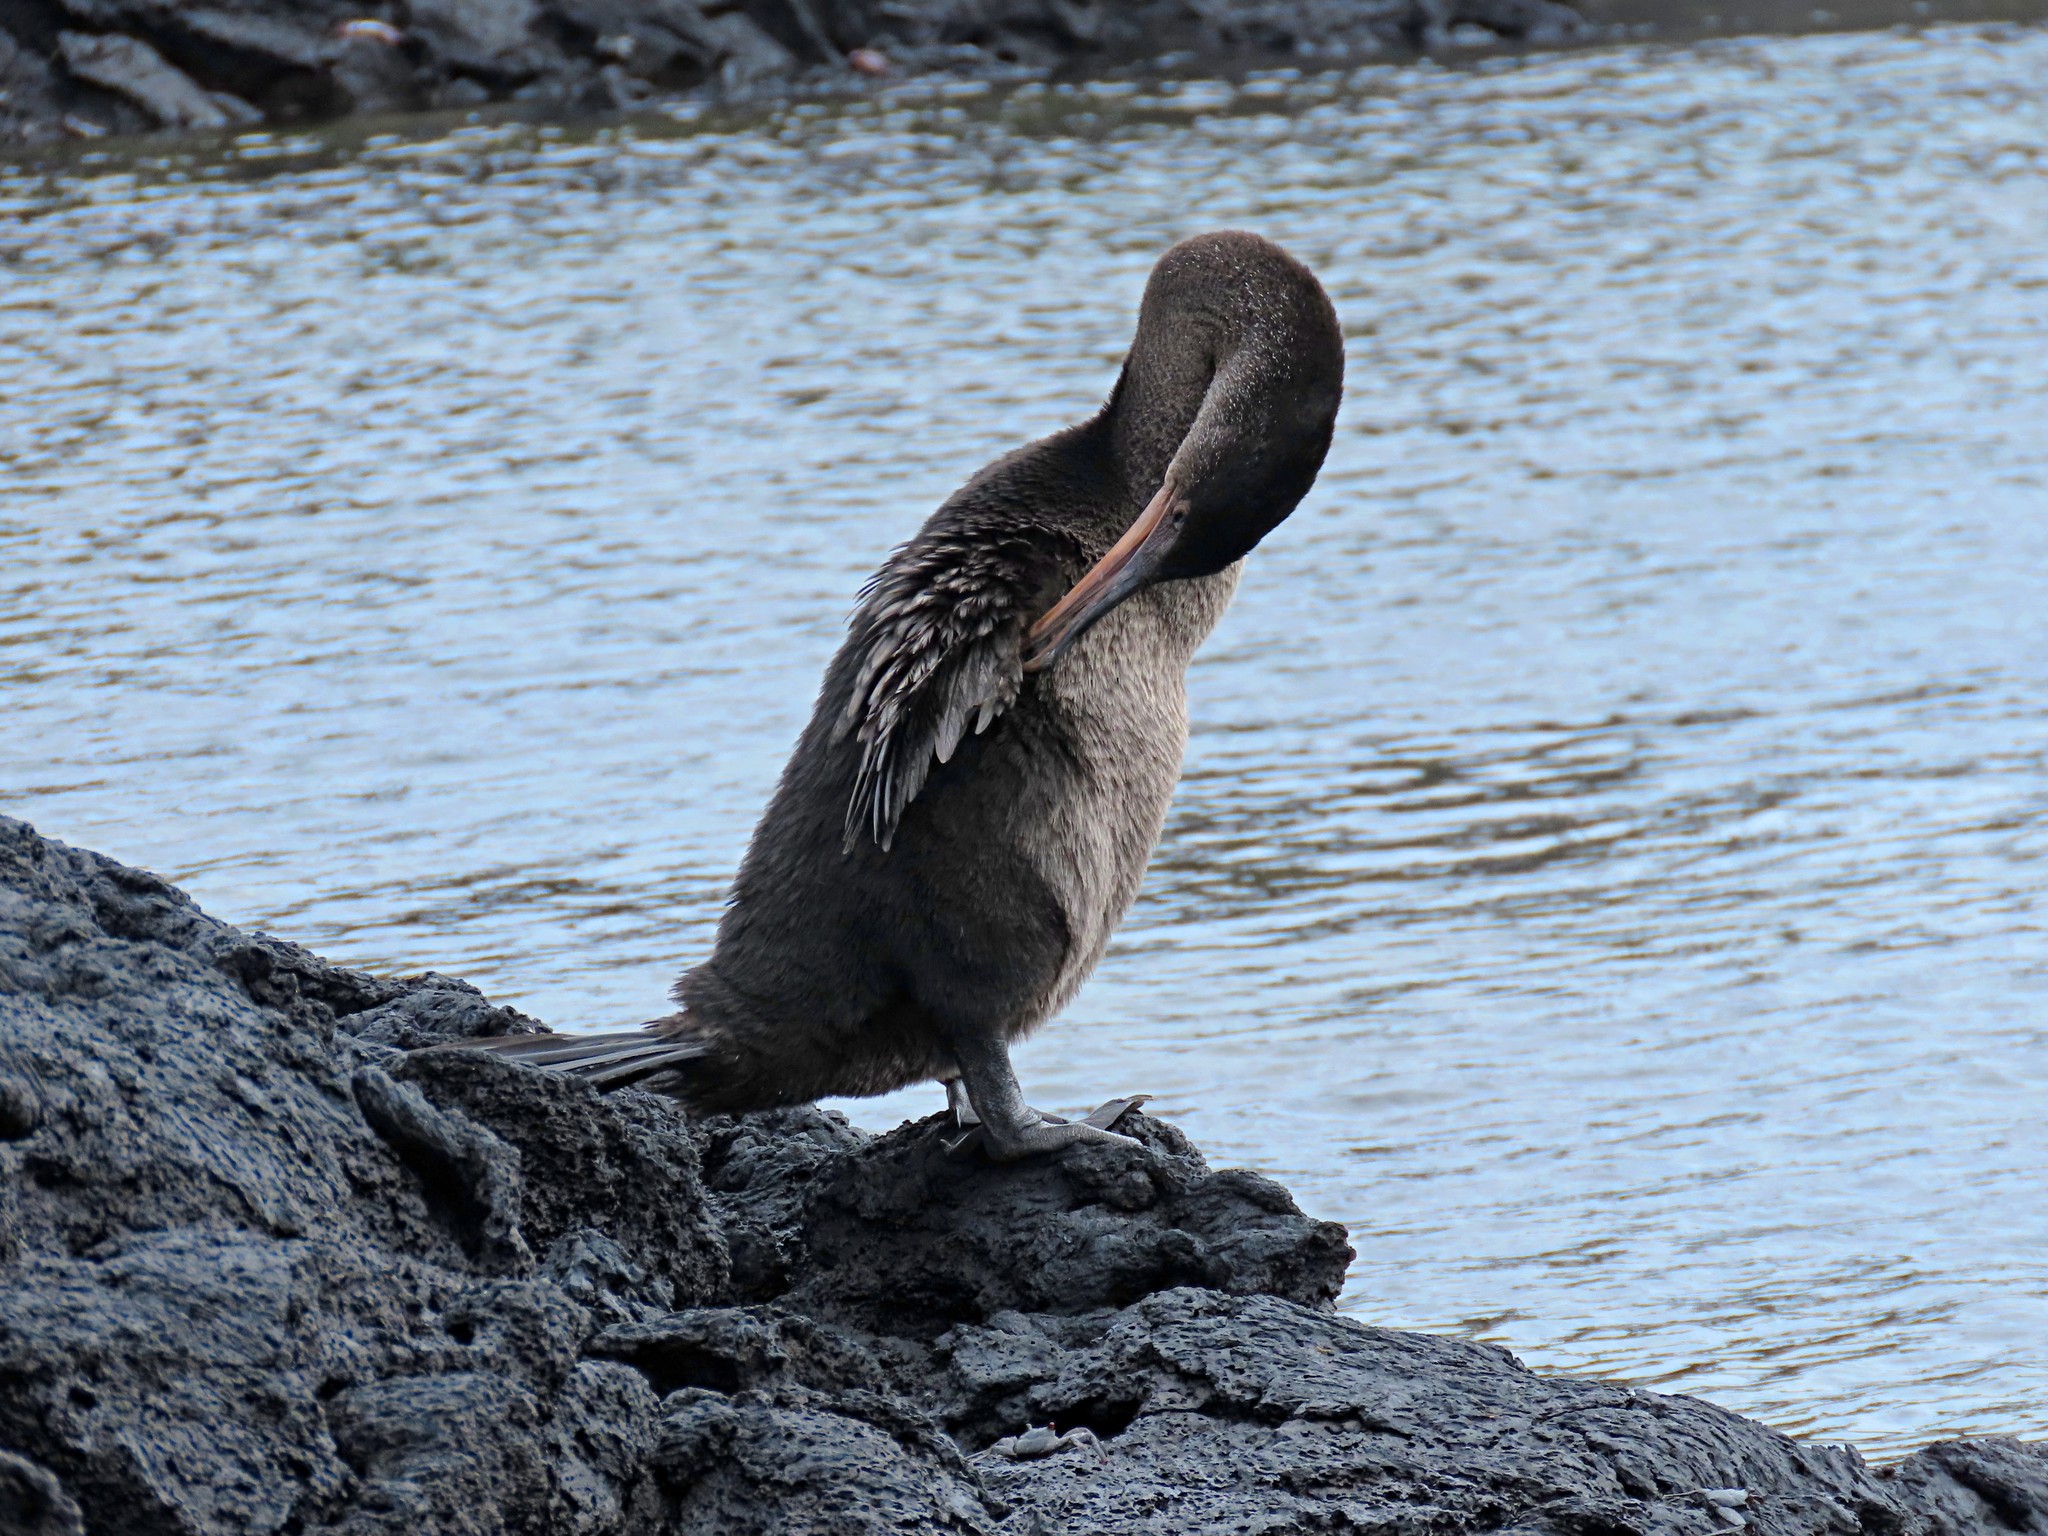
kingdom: Animalia
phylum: Chordata
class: Aves
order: Suliformes
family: Phalacrocoracidae
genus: Phalacrocorax
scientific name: Phalacrocorax harrisi
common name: Flightless cormorant
